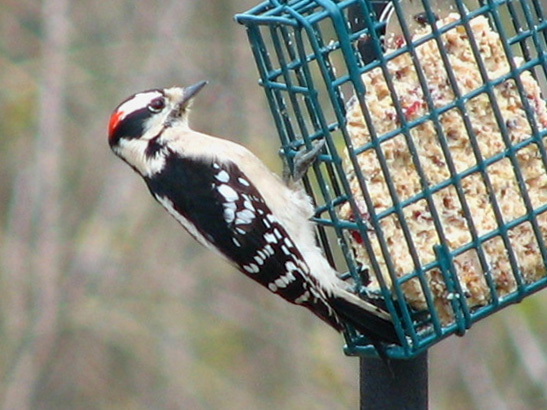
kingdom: Animalia
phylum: Chordata
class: Aves
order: Piciformes
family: Picidae
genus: Dryobates
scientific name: Dryobates pubescens
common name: Downy woodpecker
